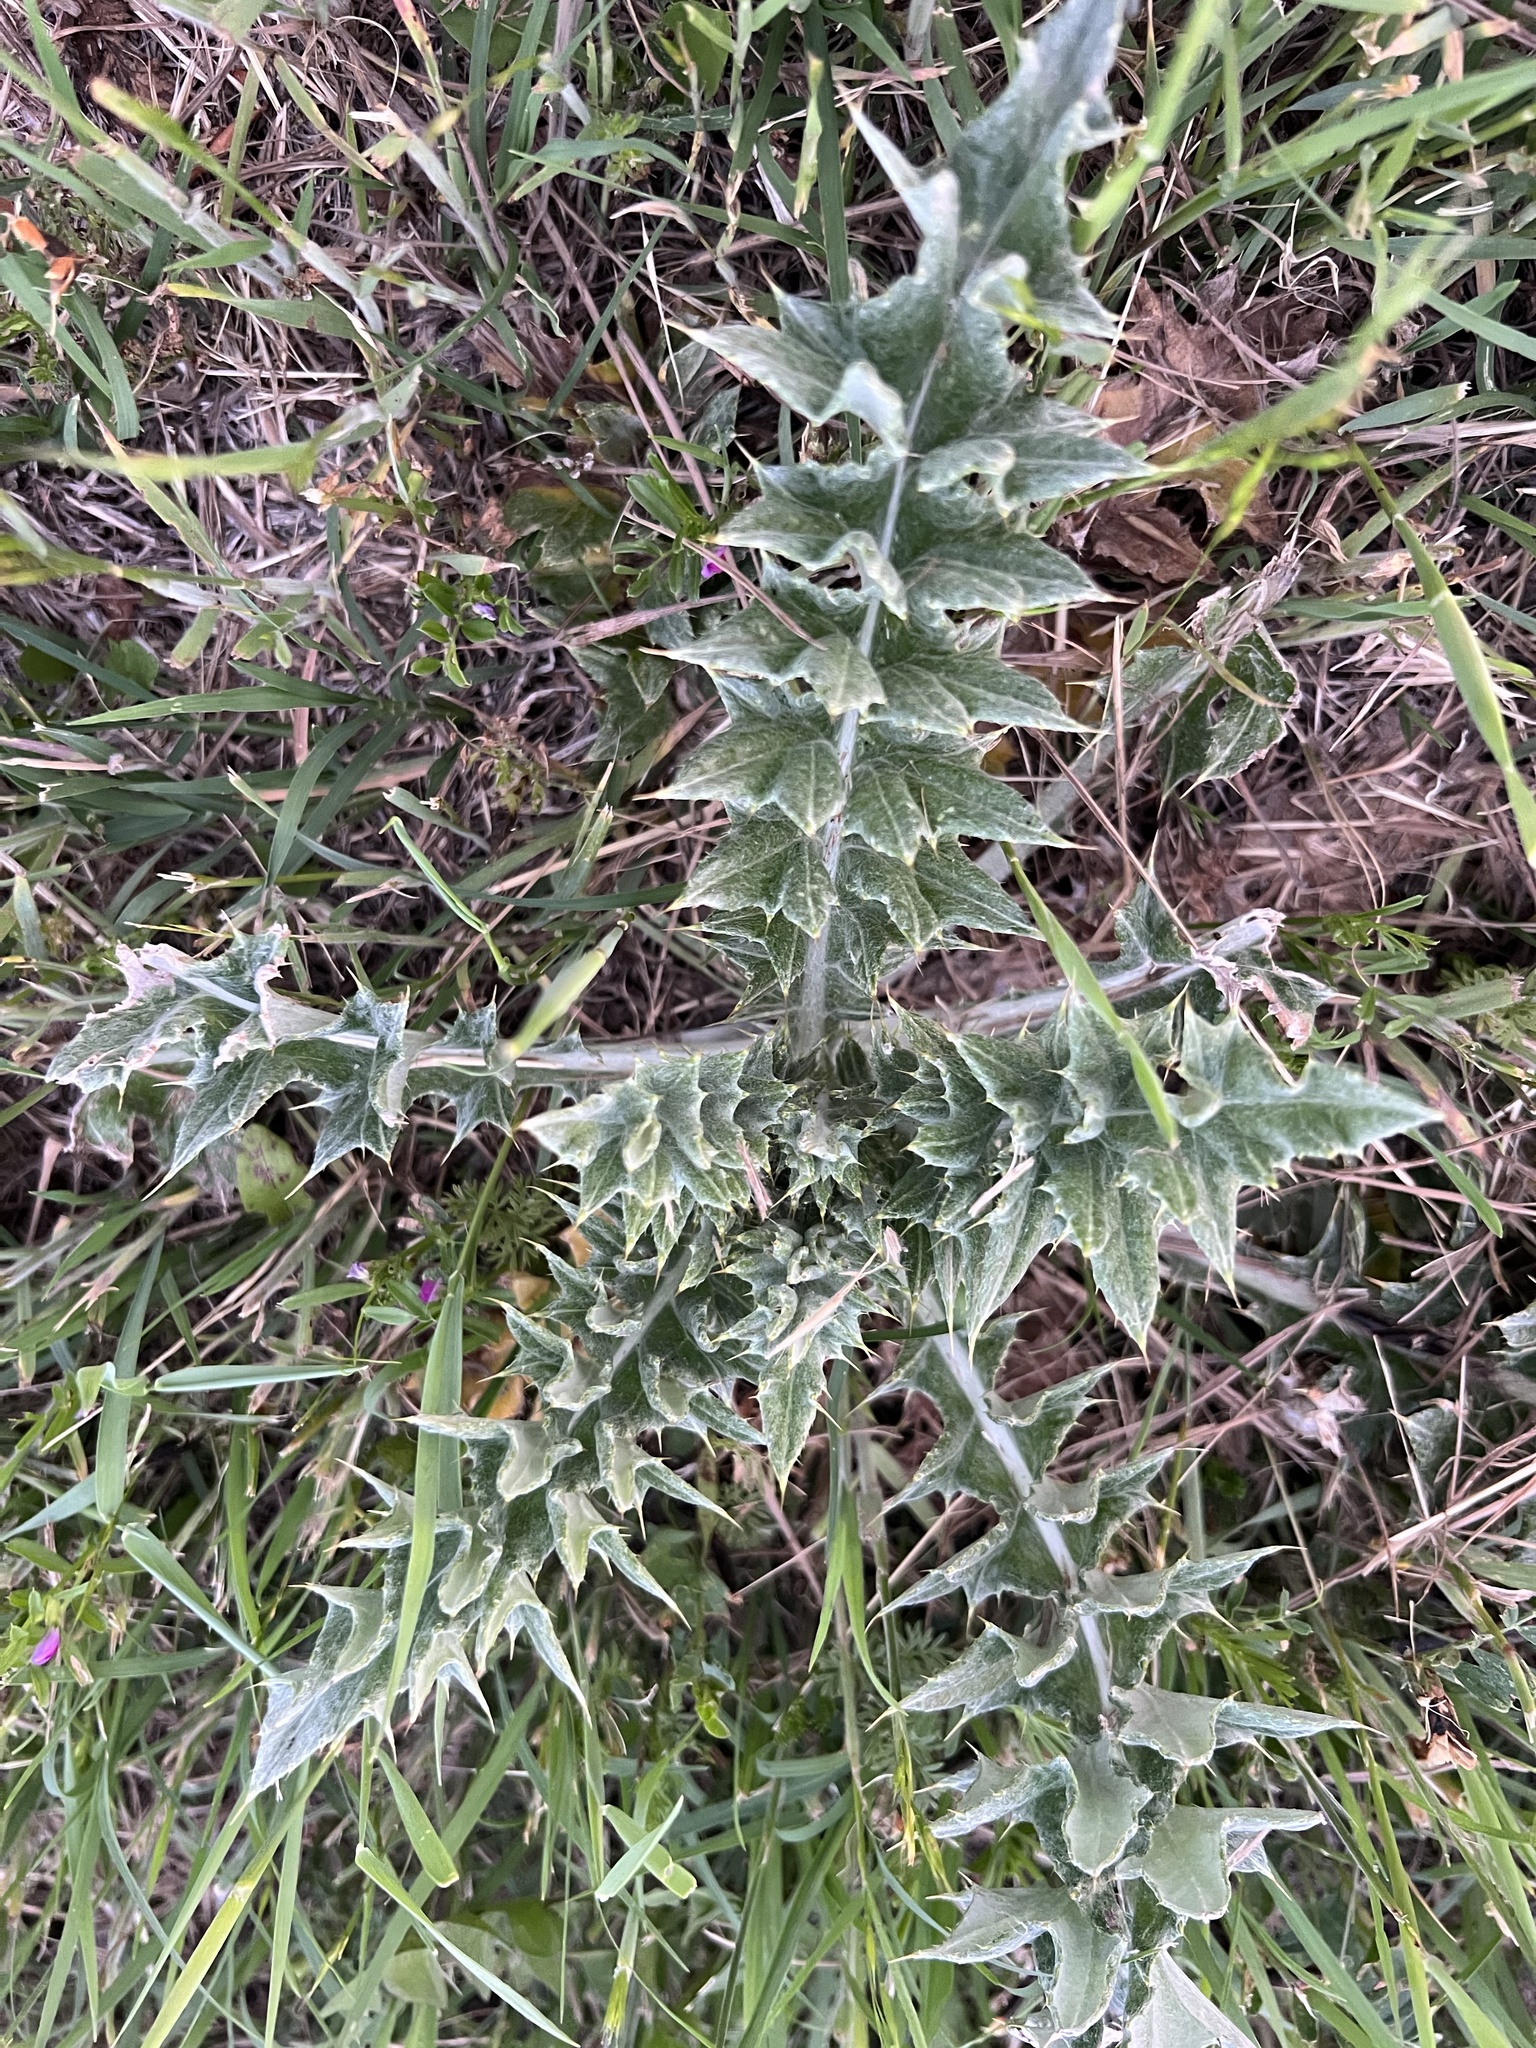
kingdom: Plantae
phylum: Tracheophyta
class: Magnoliopsida
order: Asterales
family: Asteraceae
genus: Cirsium
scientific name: Cirsium undulatum
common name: Pasture thistle
